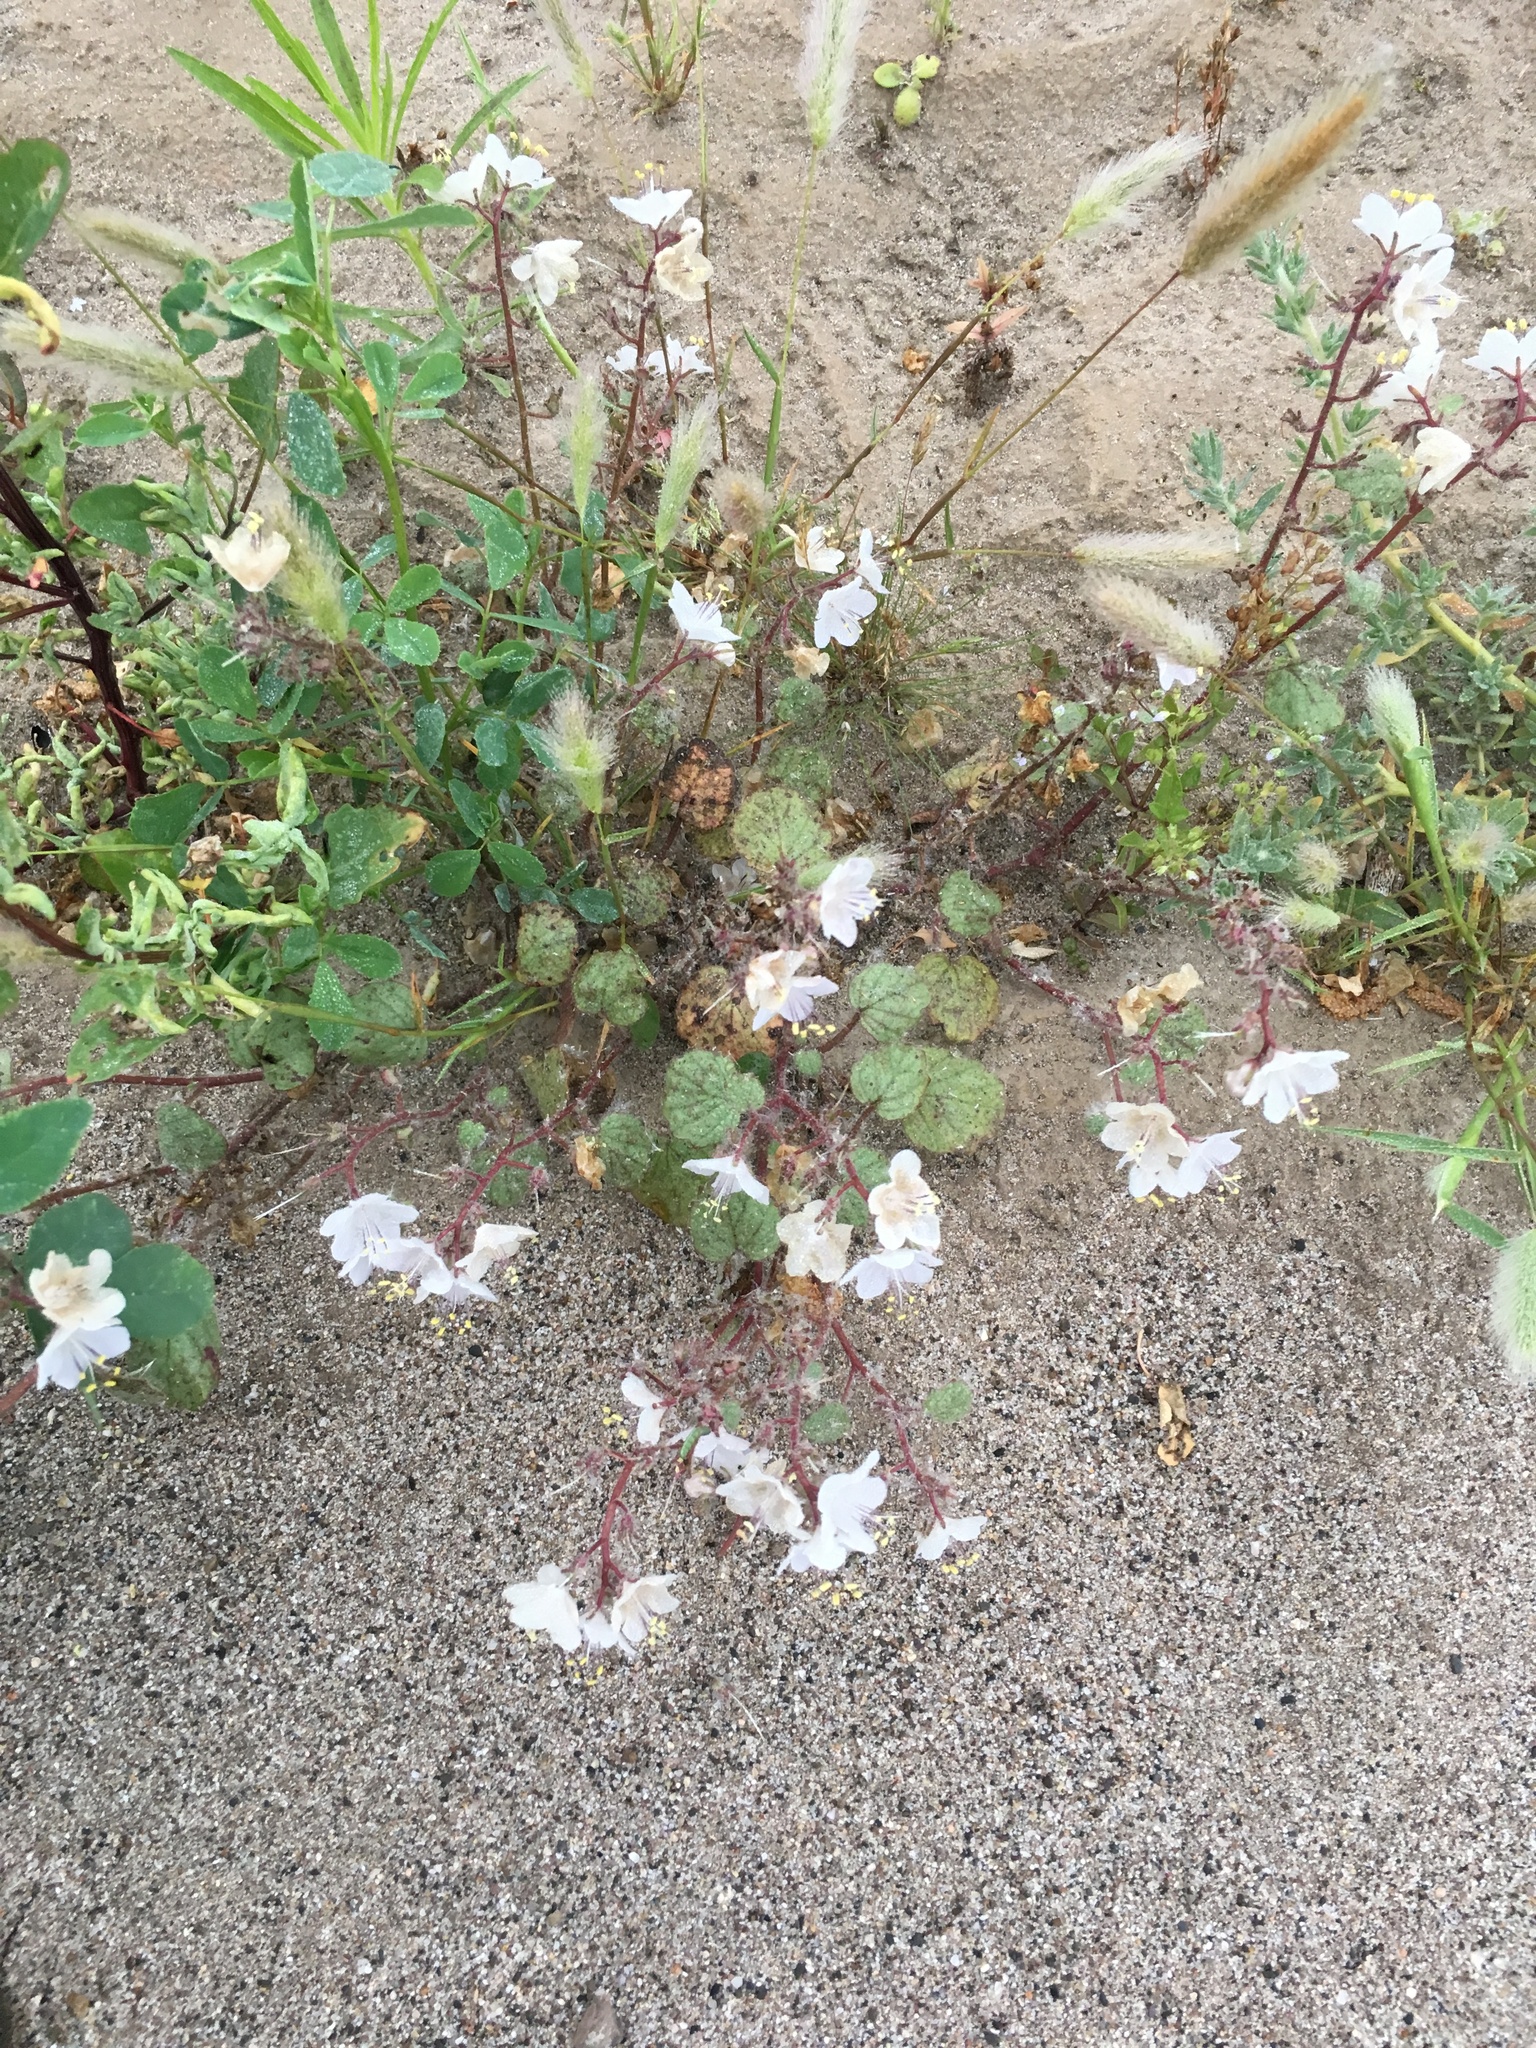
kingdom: Plantae
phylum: Tracheophyta
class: Magnoliopsida
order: Boraginales
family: Hydrophyllaceae
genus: Phacelia
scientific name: Phacelia longipes
